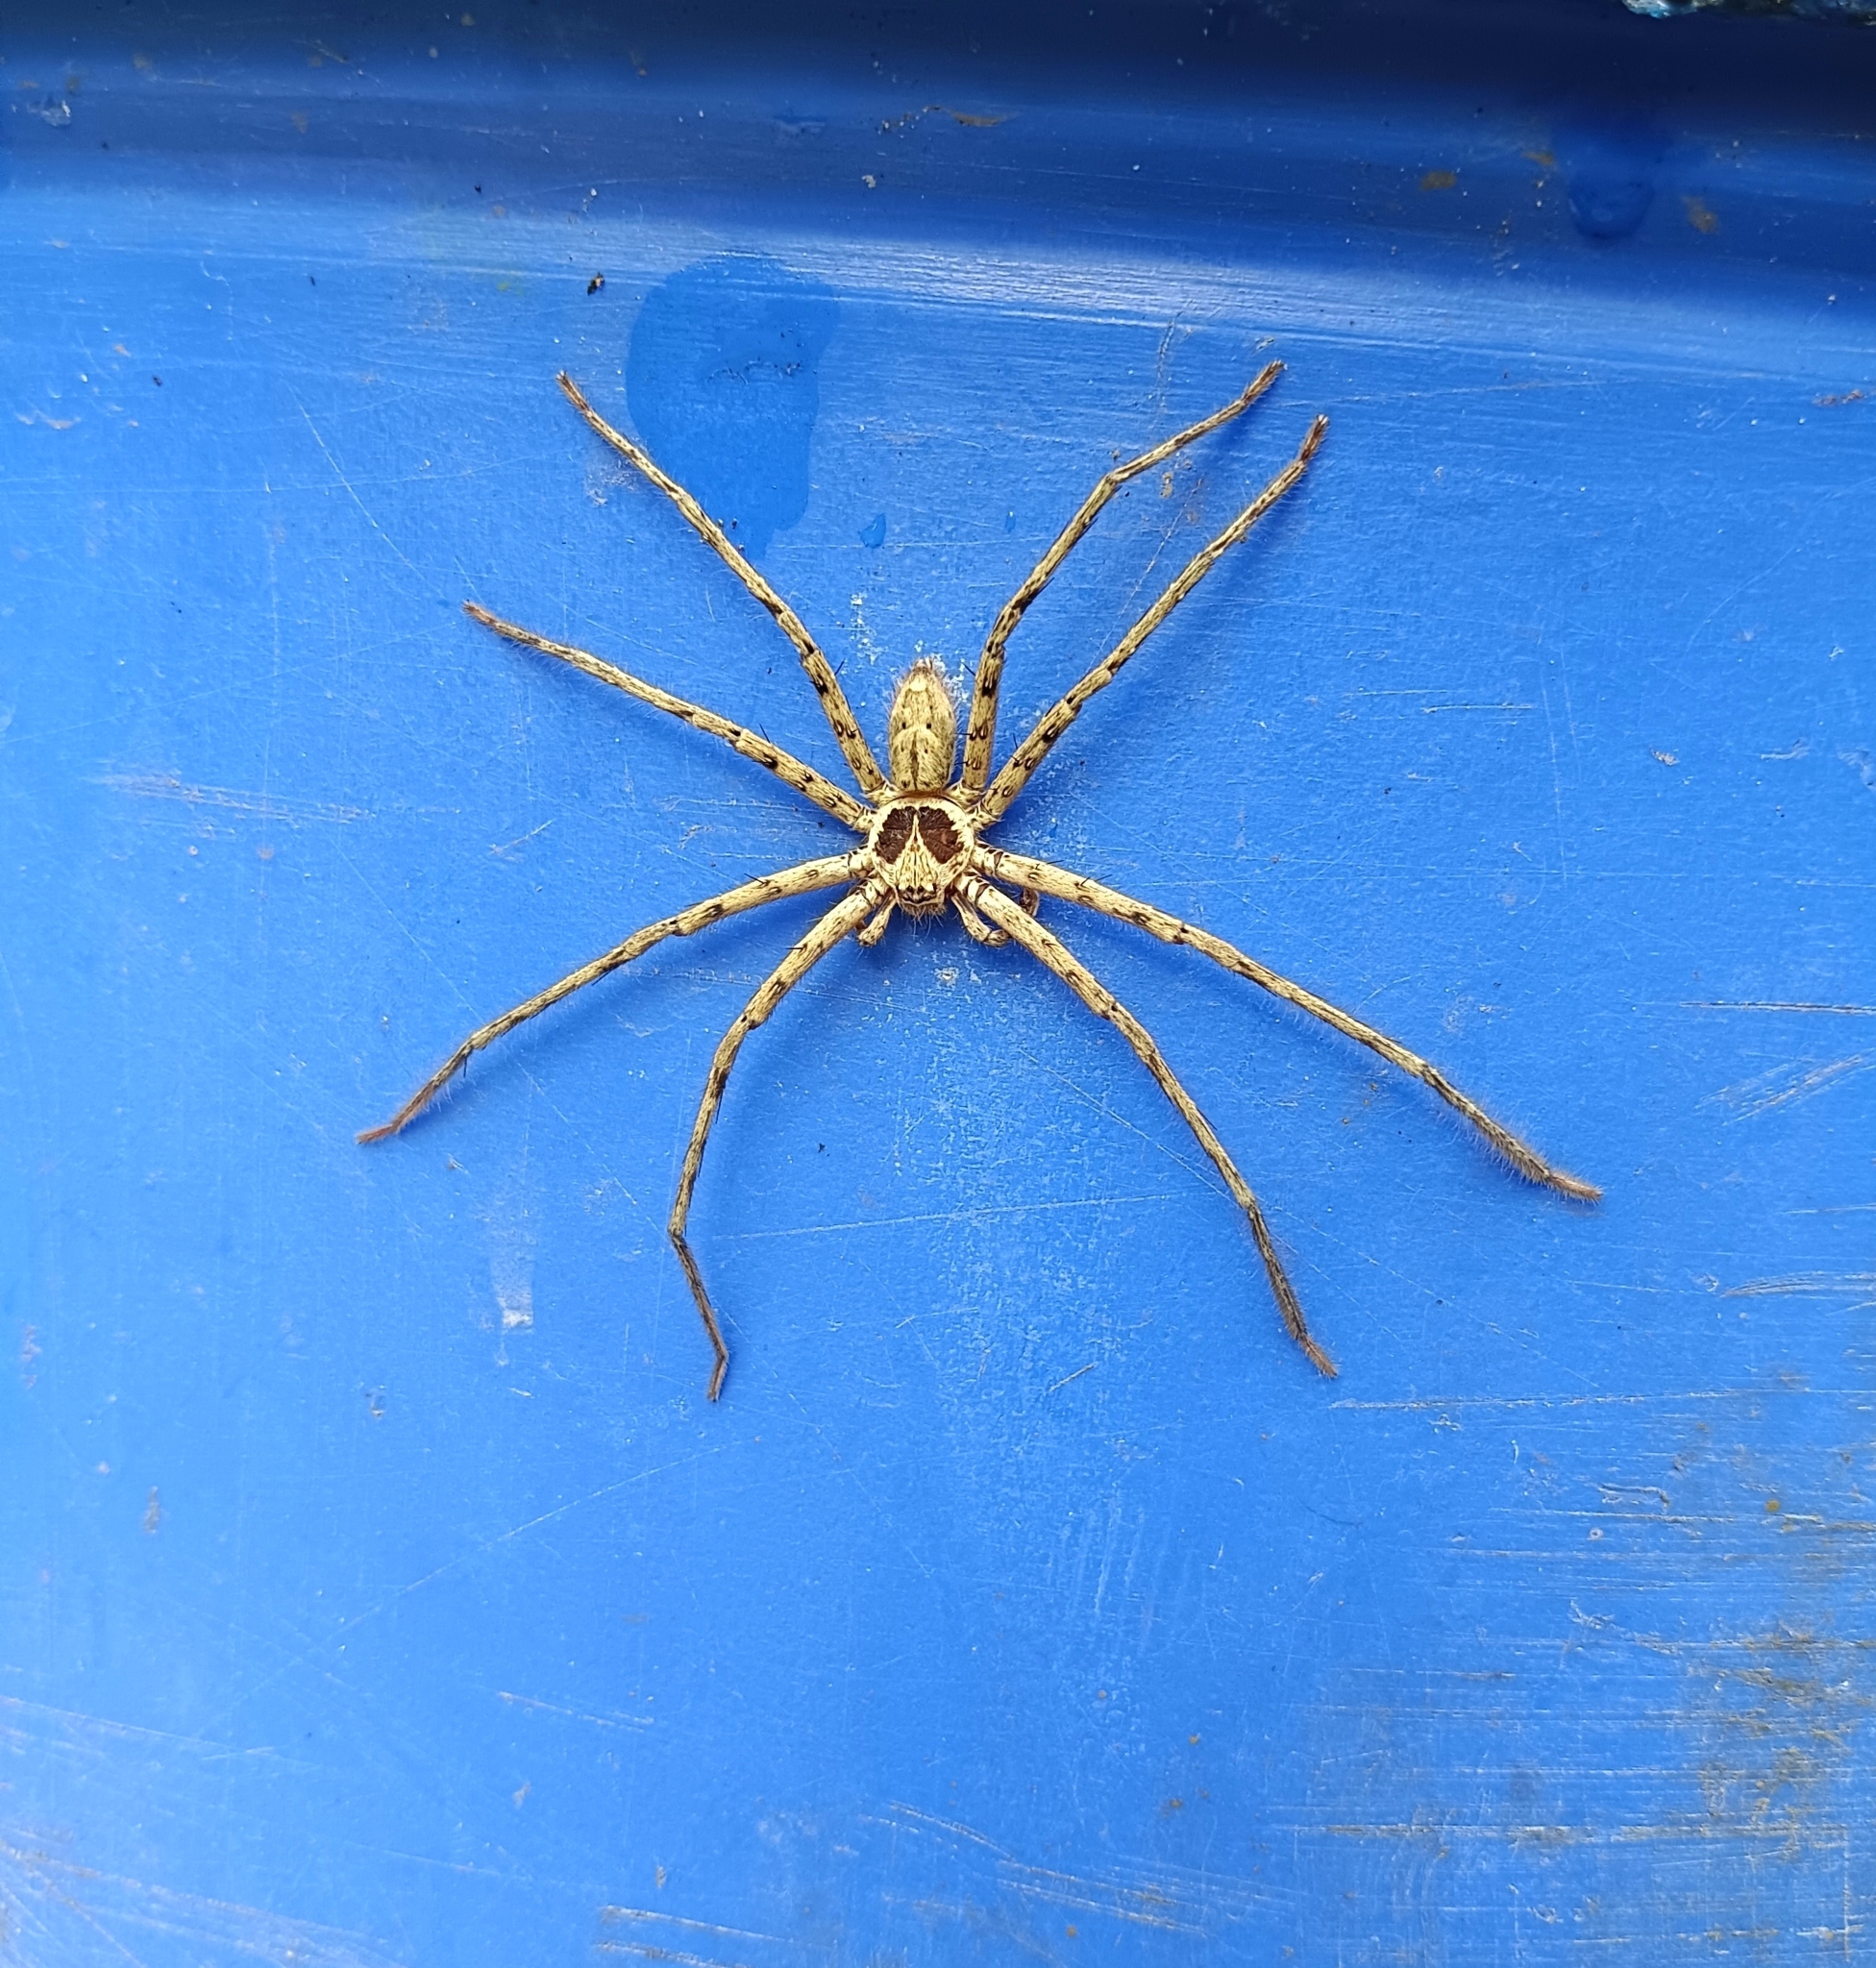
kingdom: Animalia
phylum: Arthropoda
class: Arachnida
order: Araneae
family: Sparassidae
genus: Heteropoda
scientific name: Heteropoda venatoria
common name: Huntsman spider
